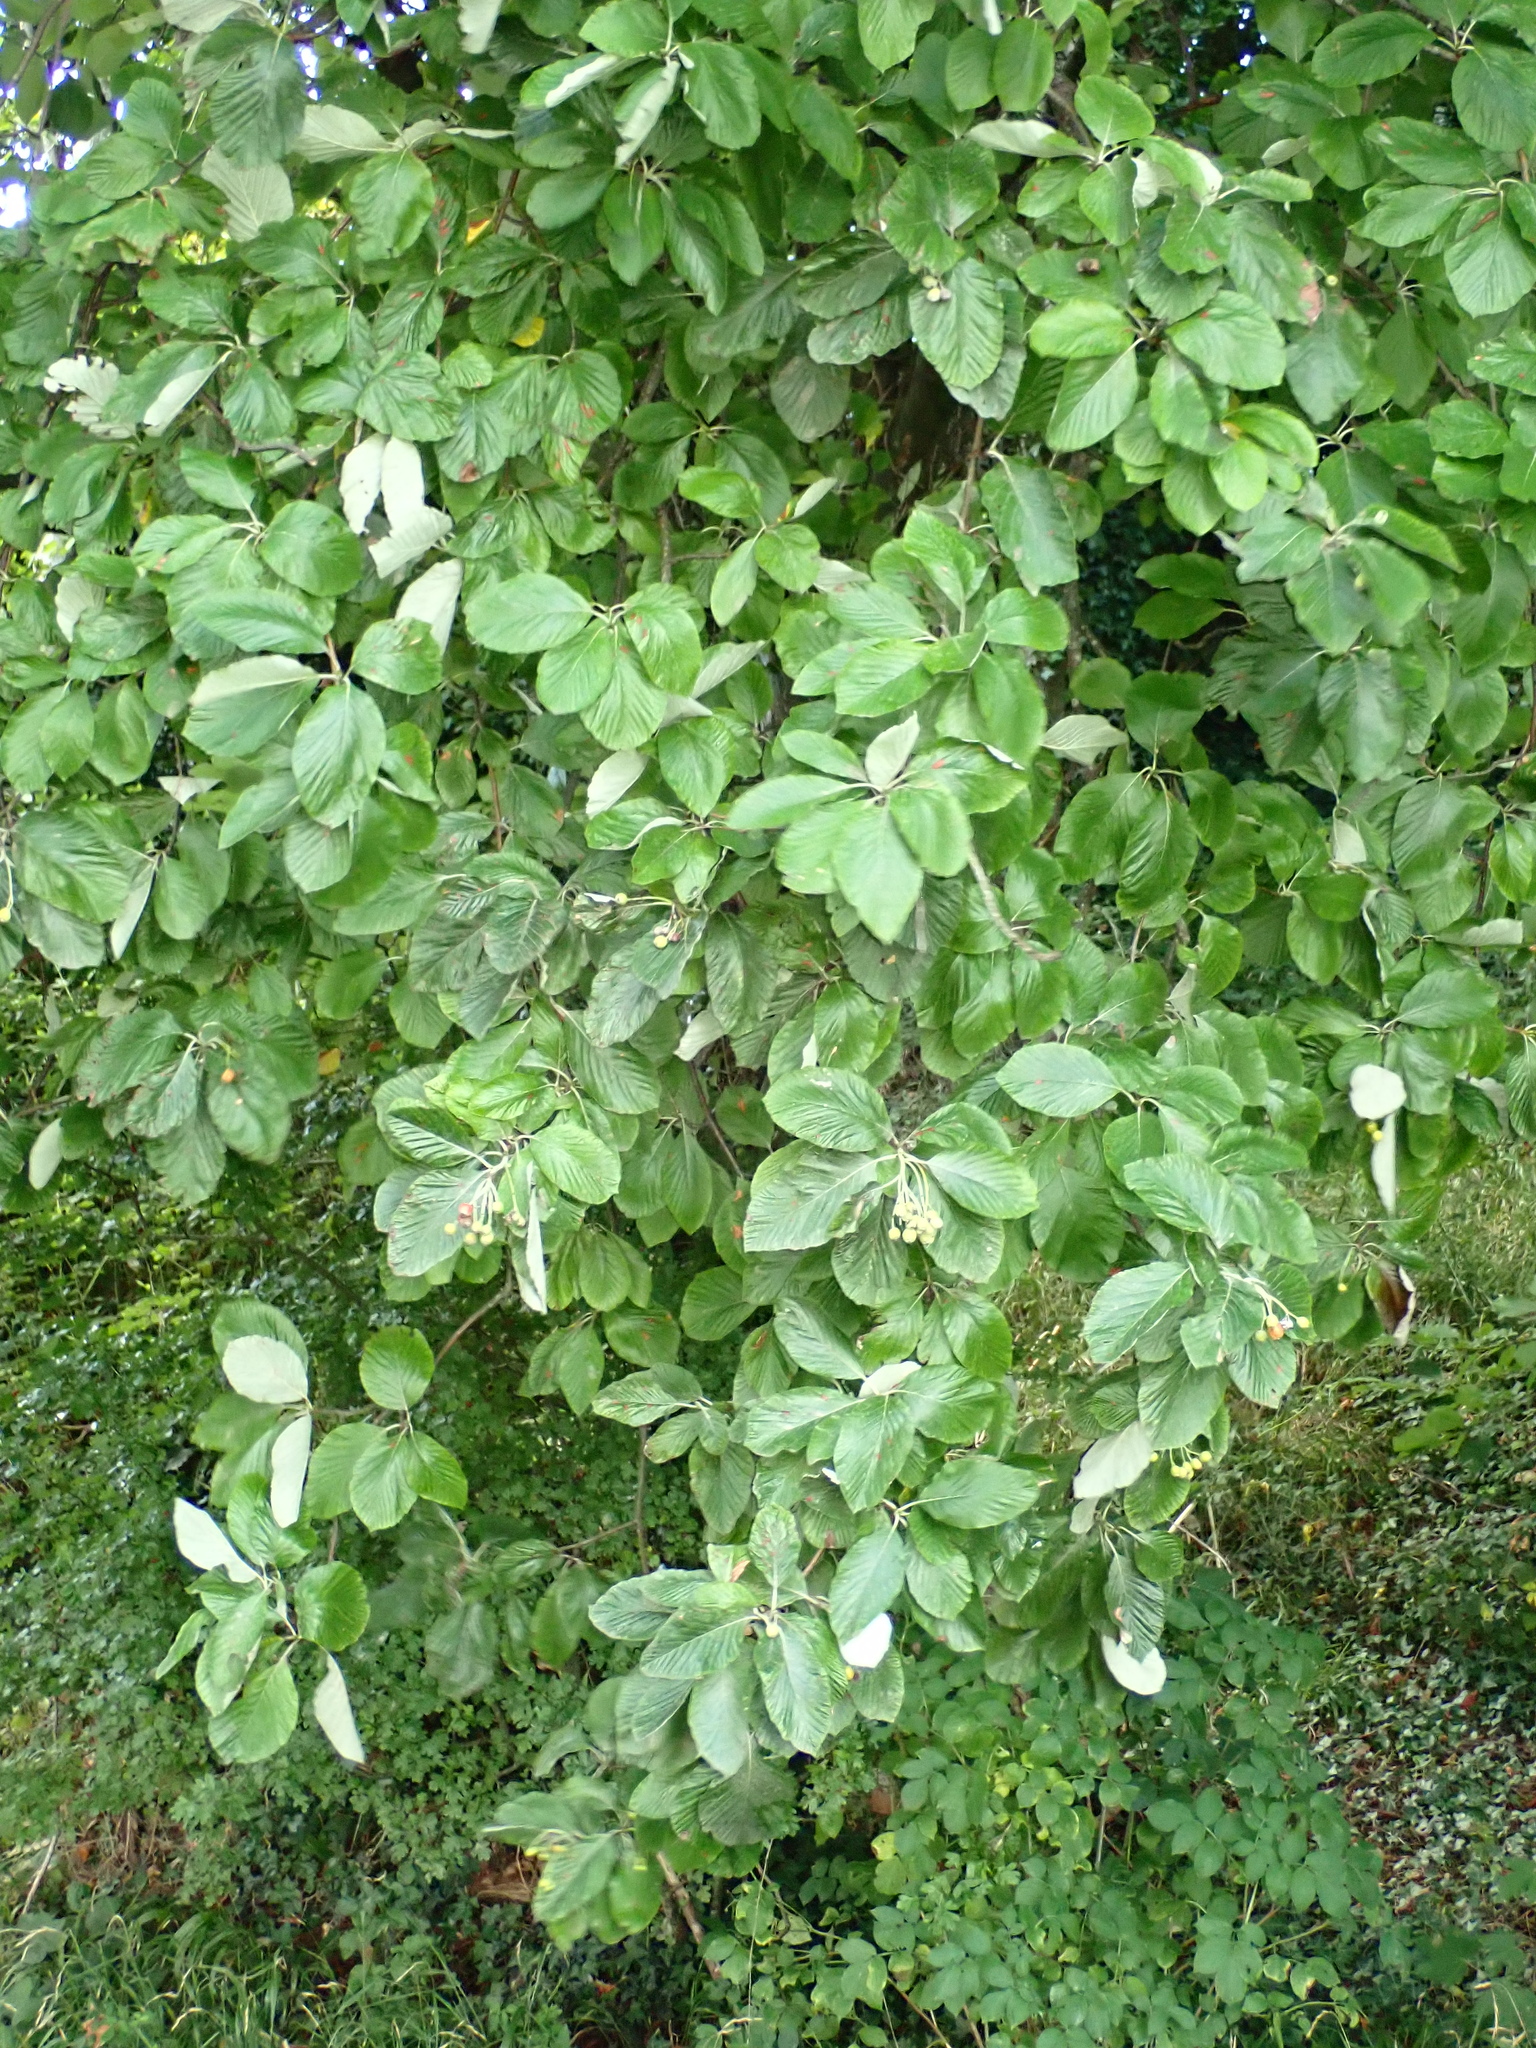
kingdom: Plantae
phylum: Tracheophyta
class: Magnoliopsida
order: Rosales
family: Rosaceae
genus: Aria
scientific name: Aria edulis
